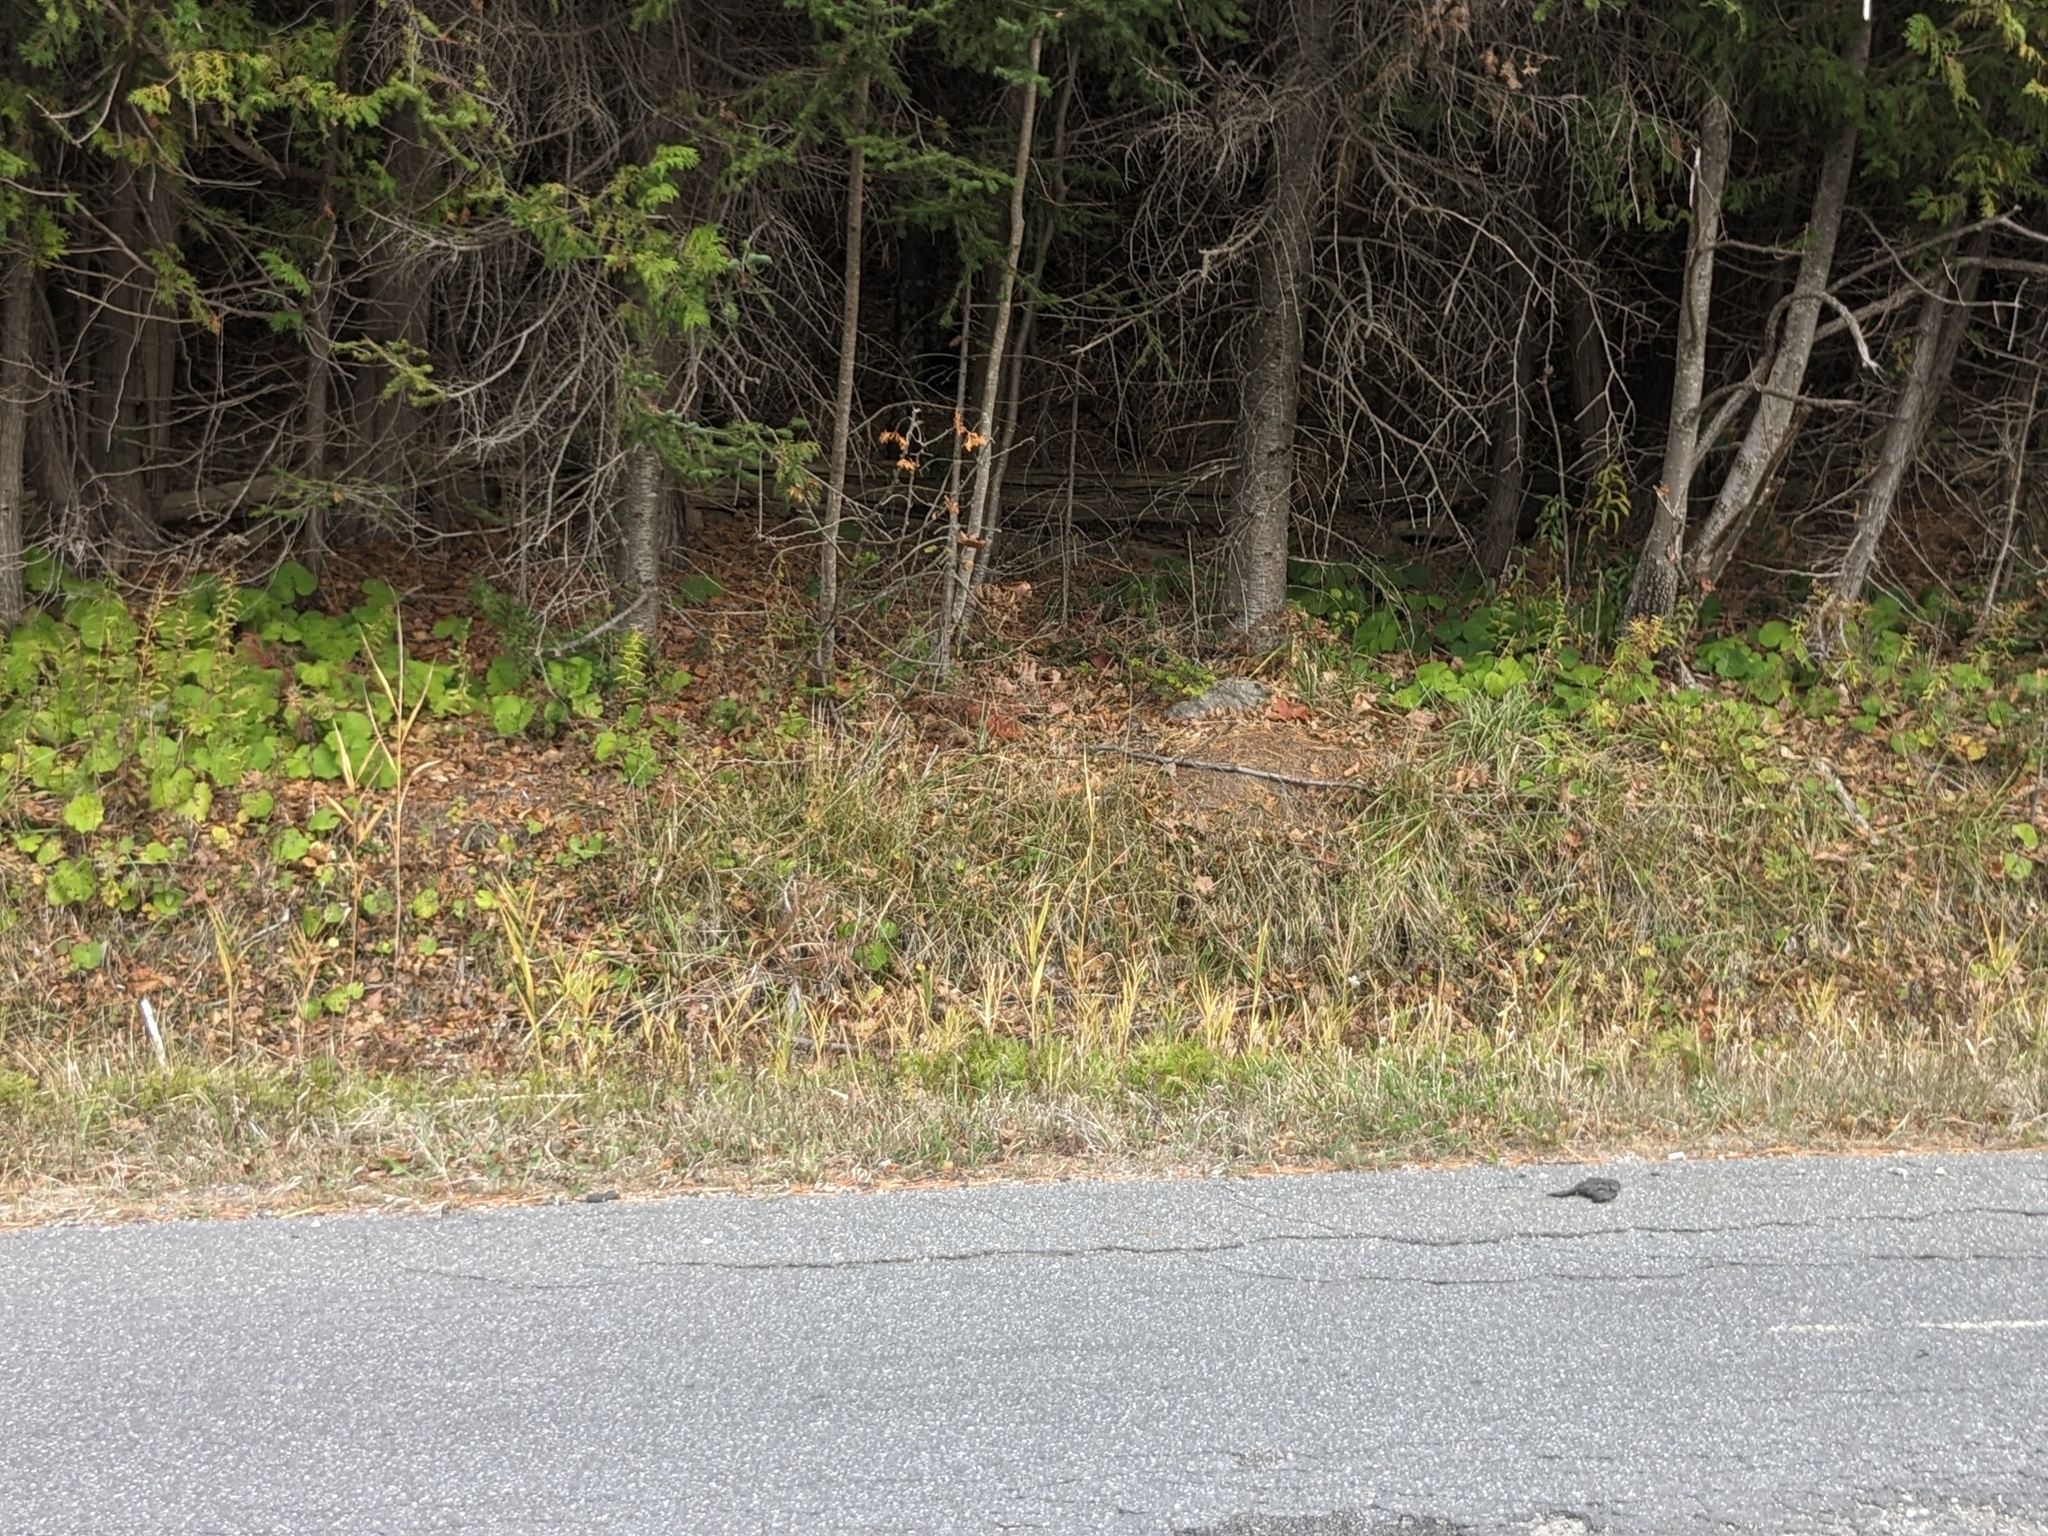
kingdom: Plantae
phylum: Tracheophyta
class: Liliopsida
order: Poales
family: Poaceae
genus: Phragmites
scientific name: Phragmites australis
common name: Common reed
